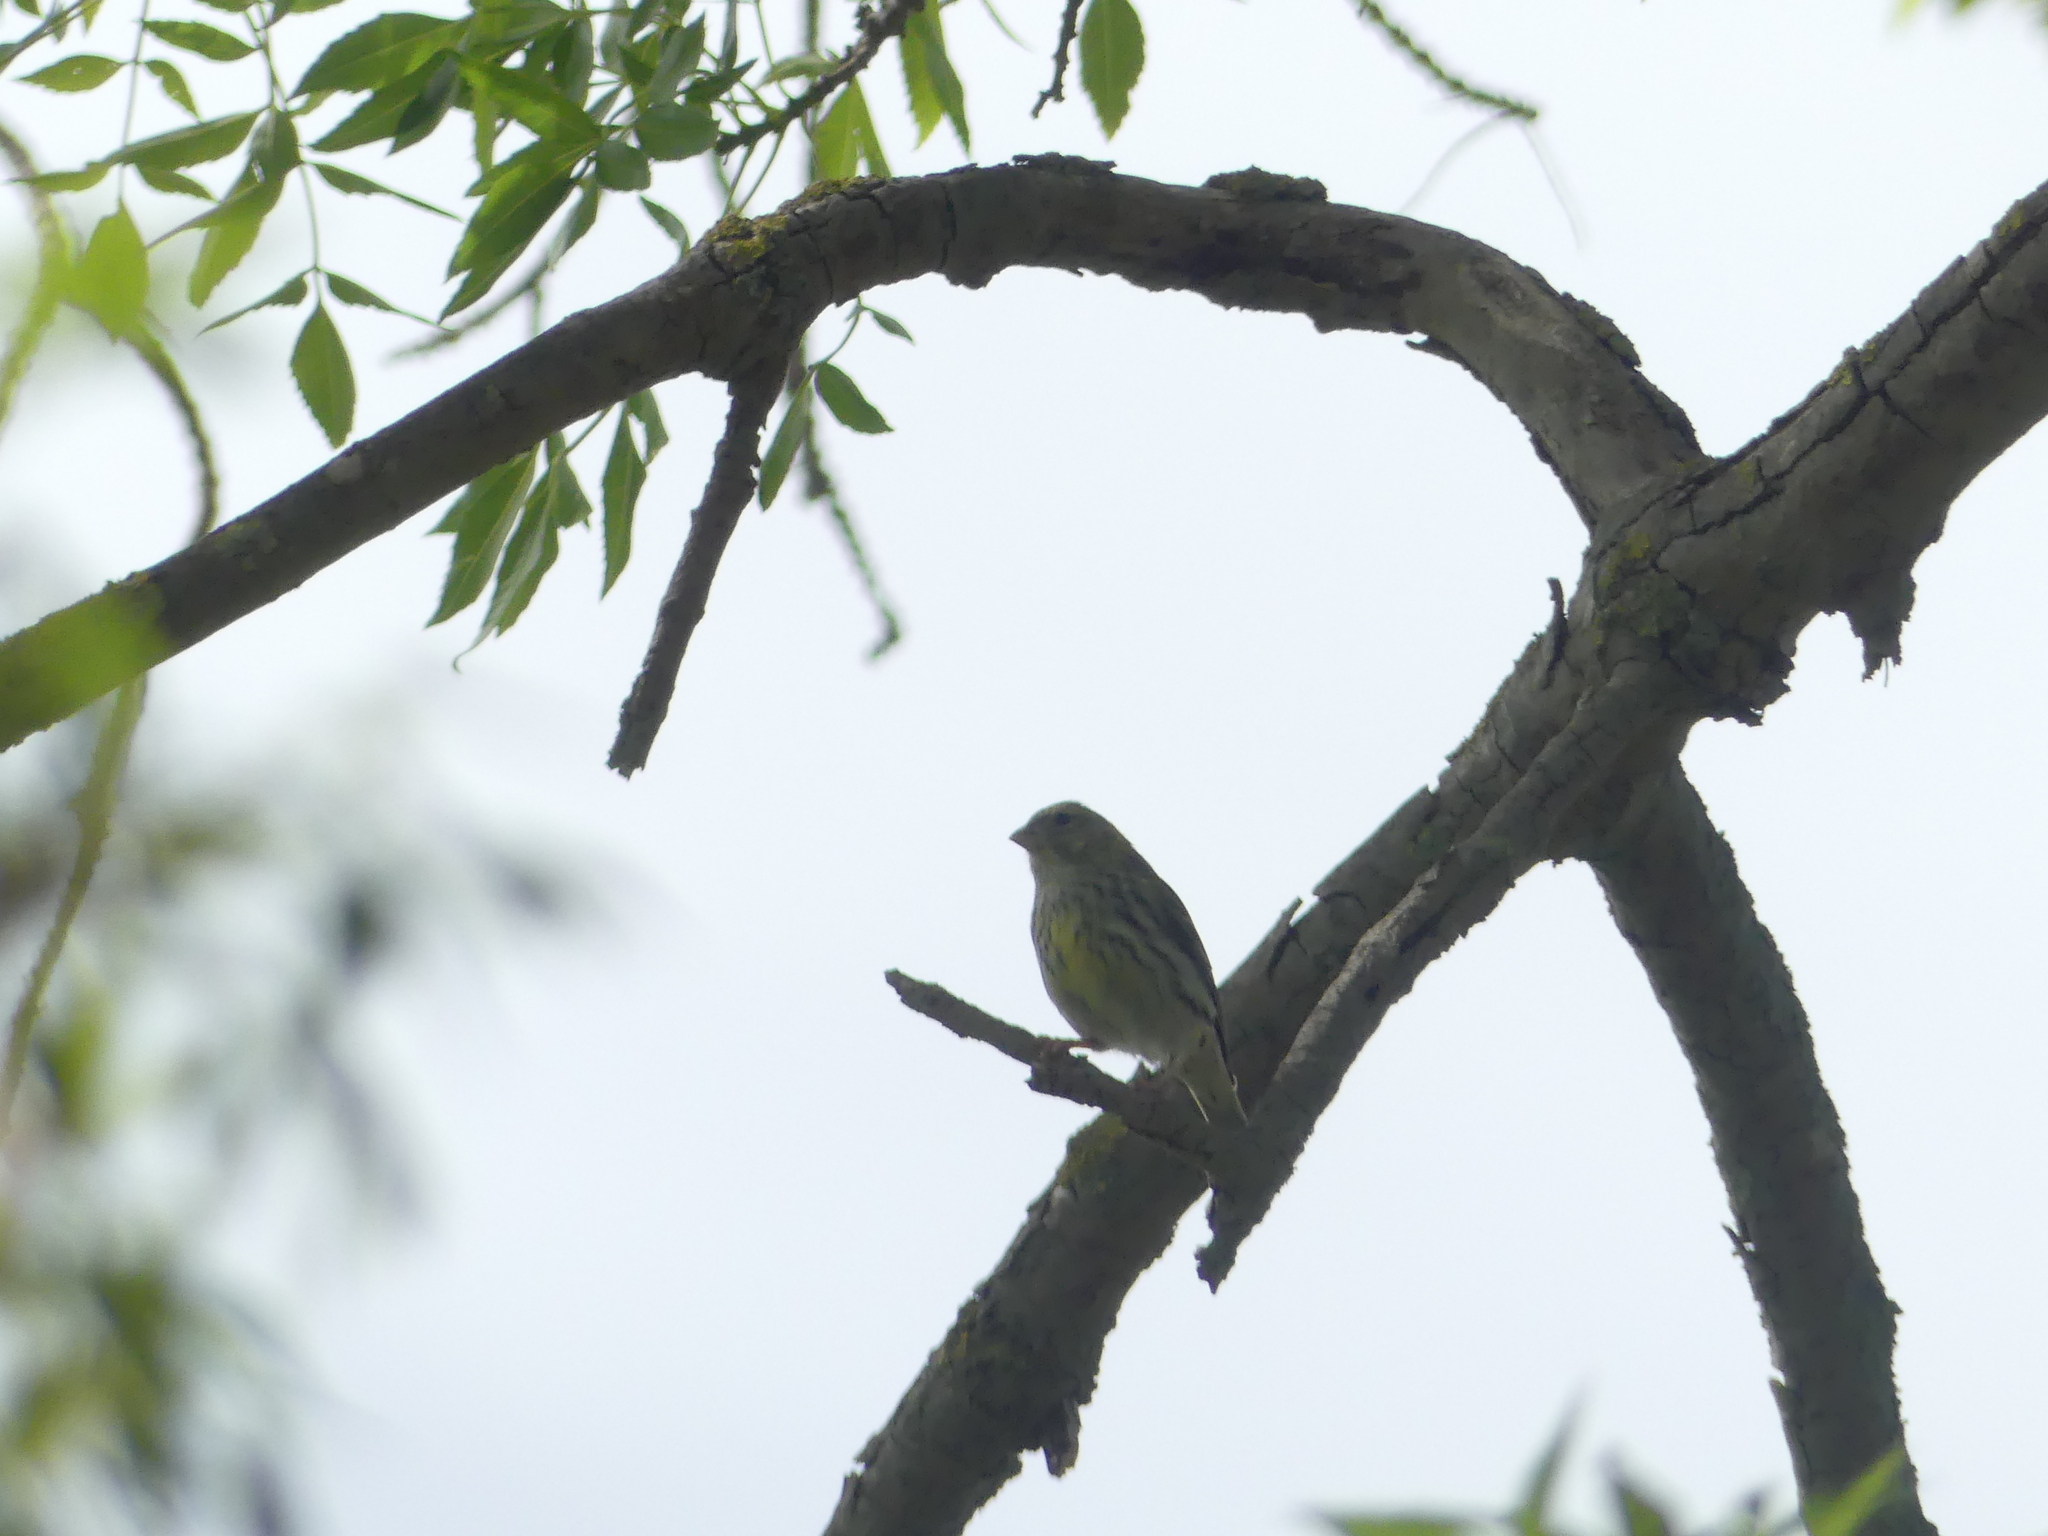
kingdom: Animalia
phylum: Chordata
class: Aves
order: Passeriformes
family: Fringillidae
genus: Serinus
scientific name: Serinus serinus
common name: European serin
